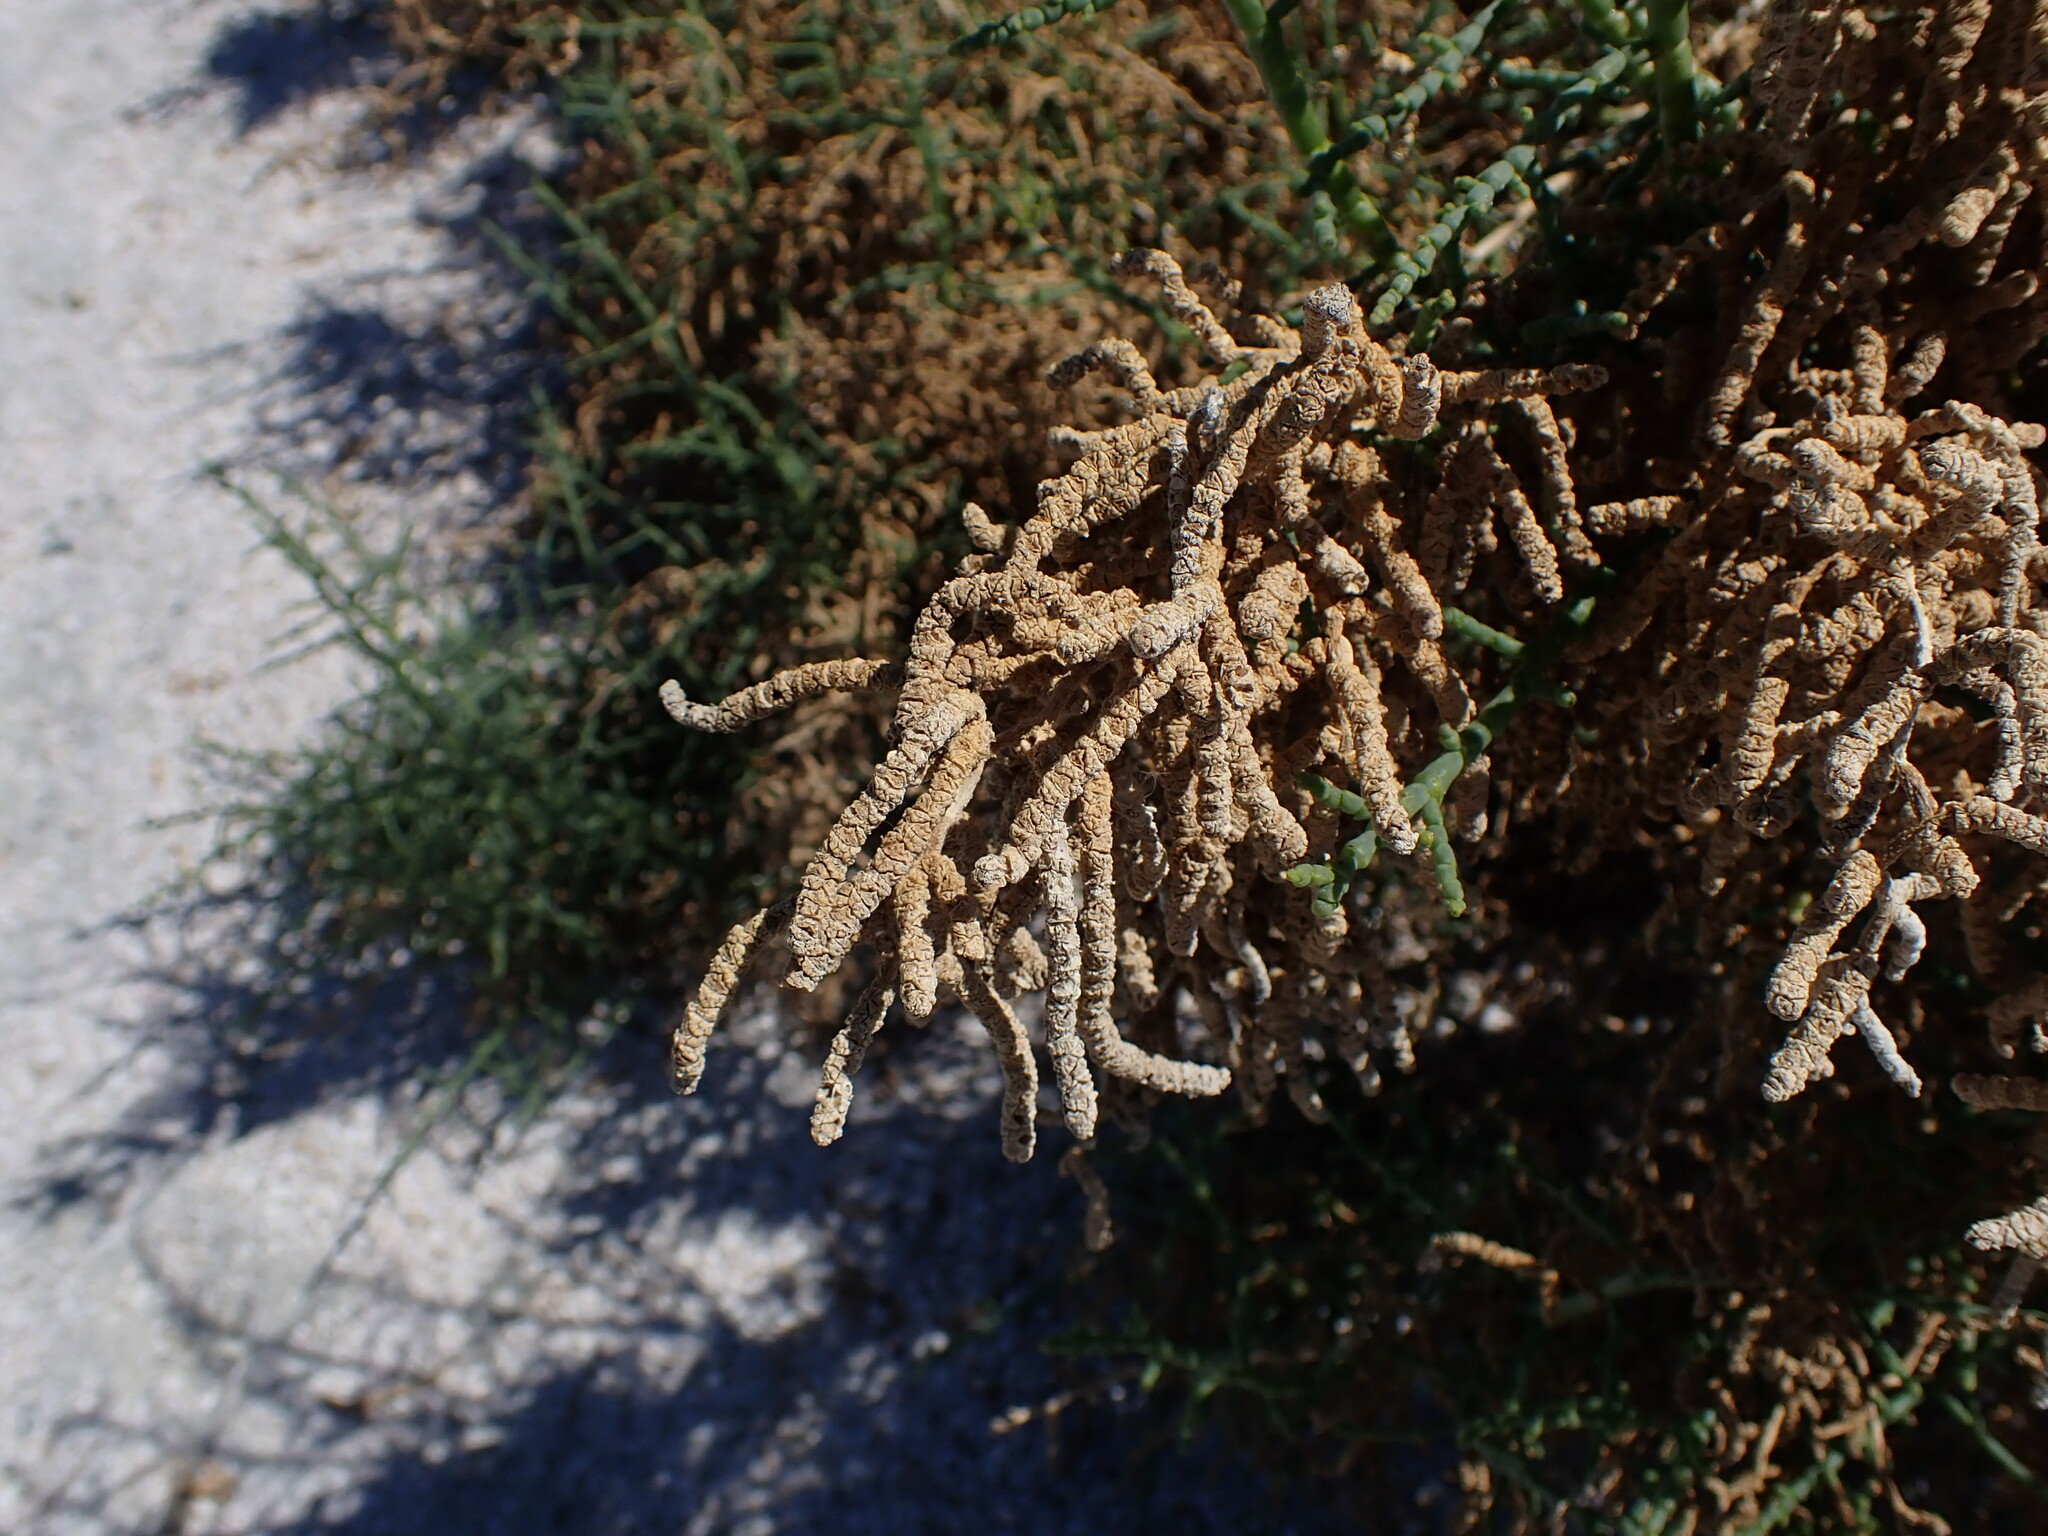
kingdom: Plantae
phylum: Tracheophyta
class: Magnoliopsida
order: Caryophyllales
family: Amaranthaceae
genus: Allenrolfea
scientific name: Allenrolfea occidentalis
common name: Iodine-bush
